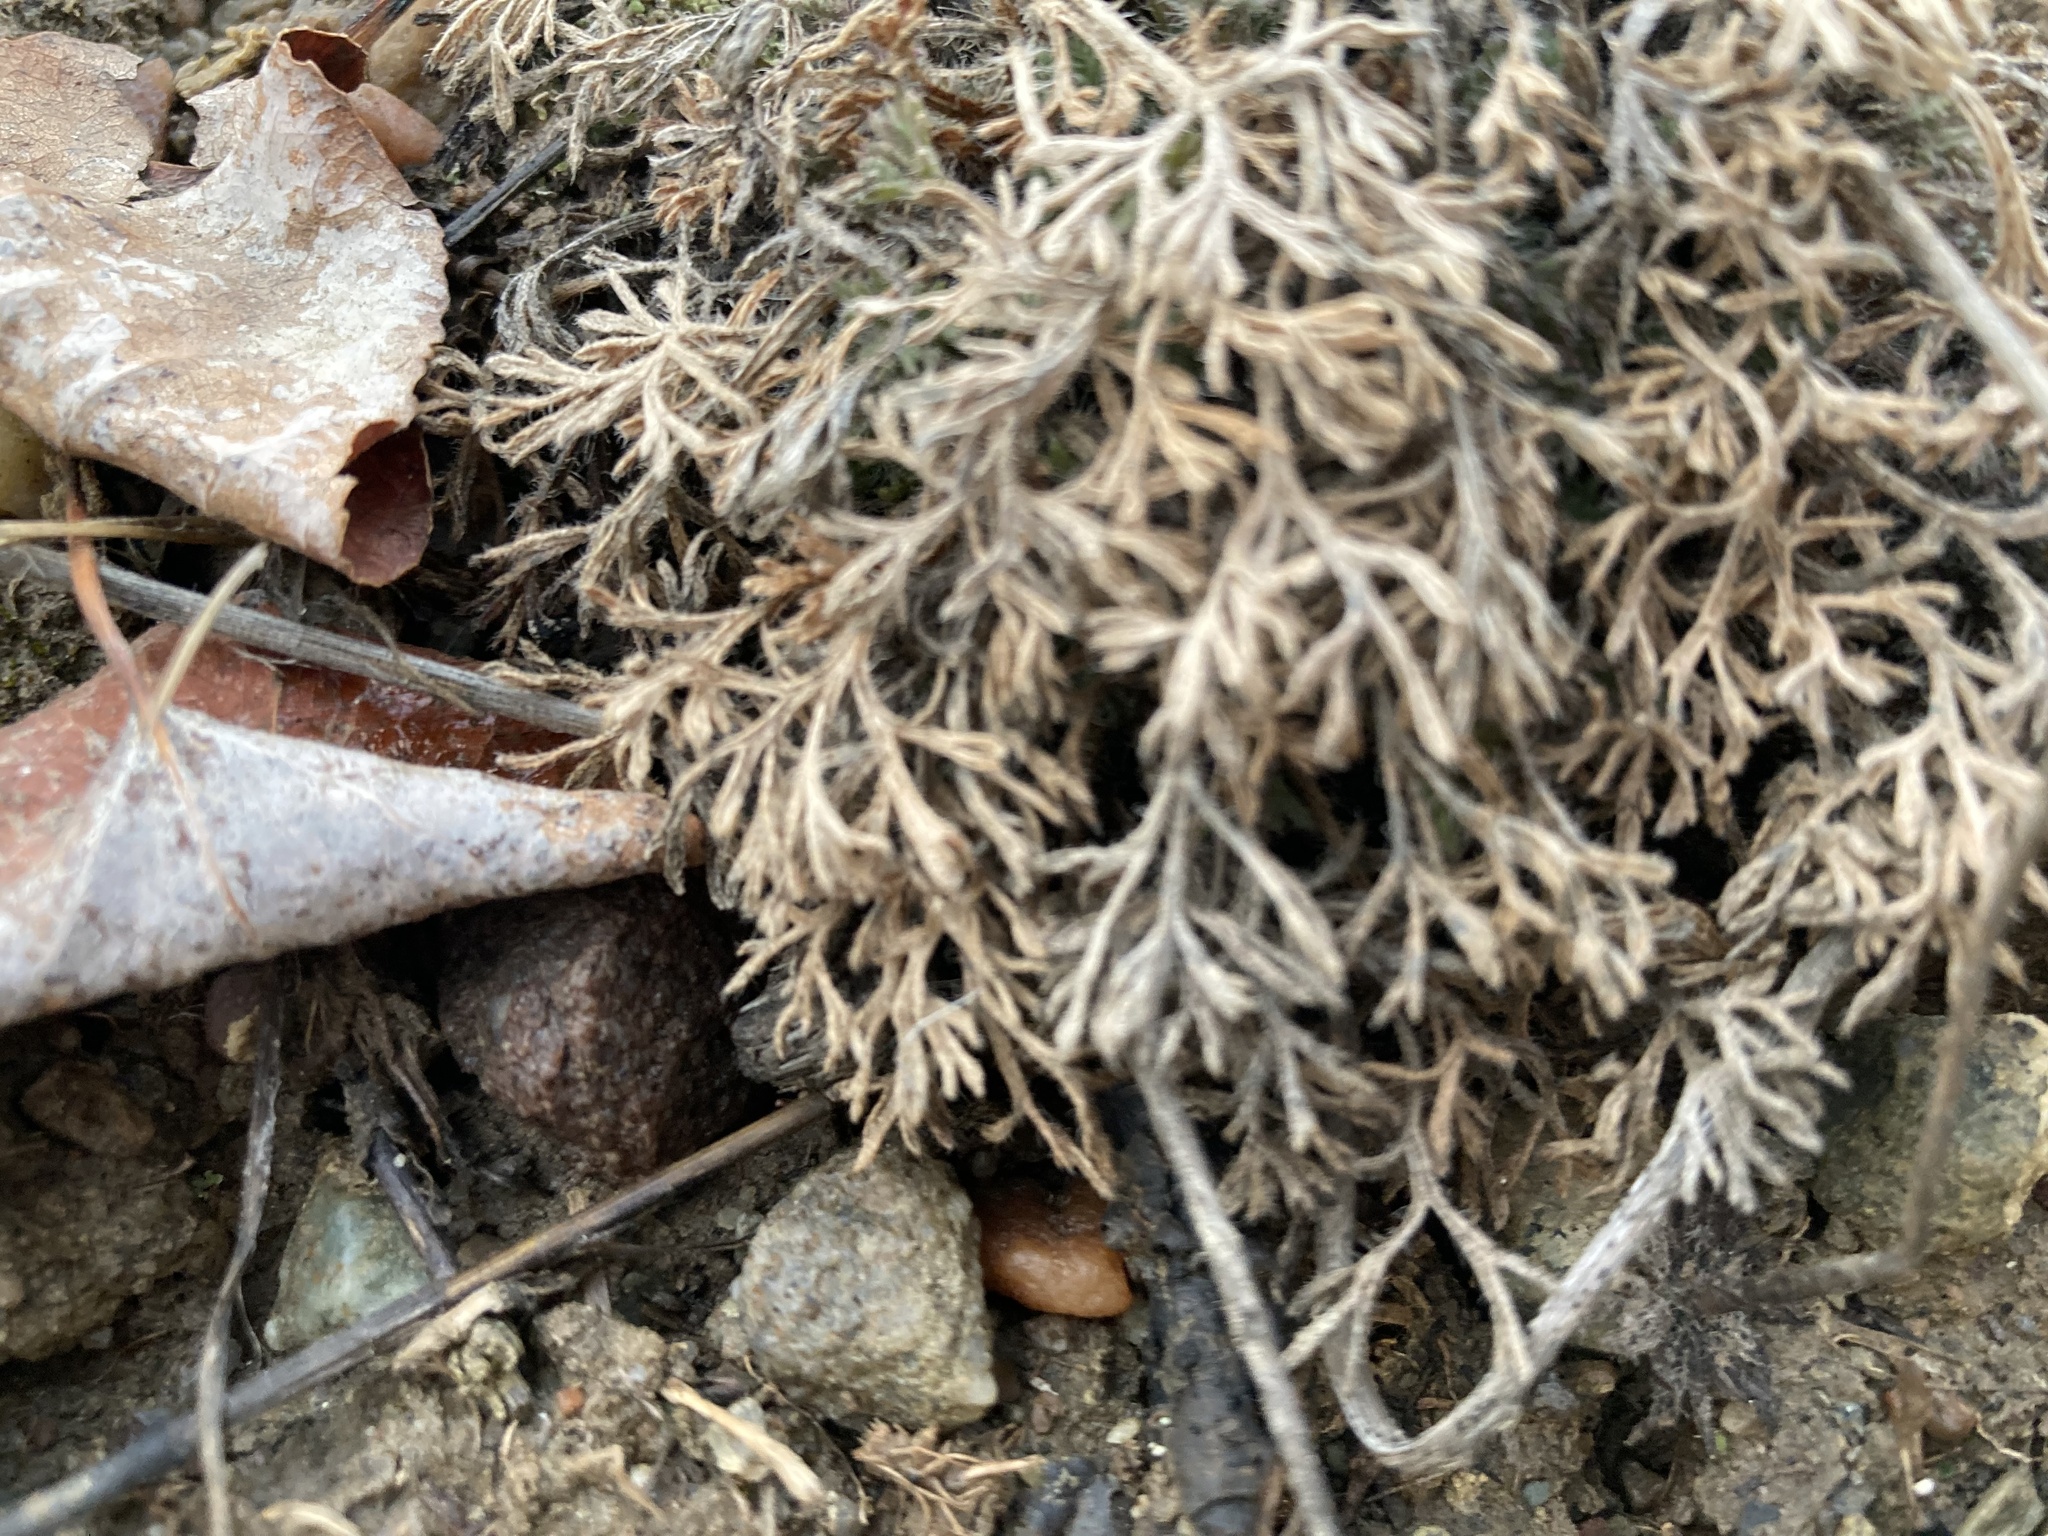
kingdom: Plantae
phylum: Tracheophyta
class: Magnoliopsida
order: Asterales
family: Asteraceae
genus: Erigeron
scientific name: Erigeron compositus
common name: Dwarf mountain fleabane
